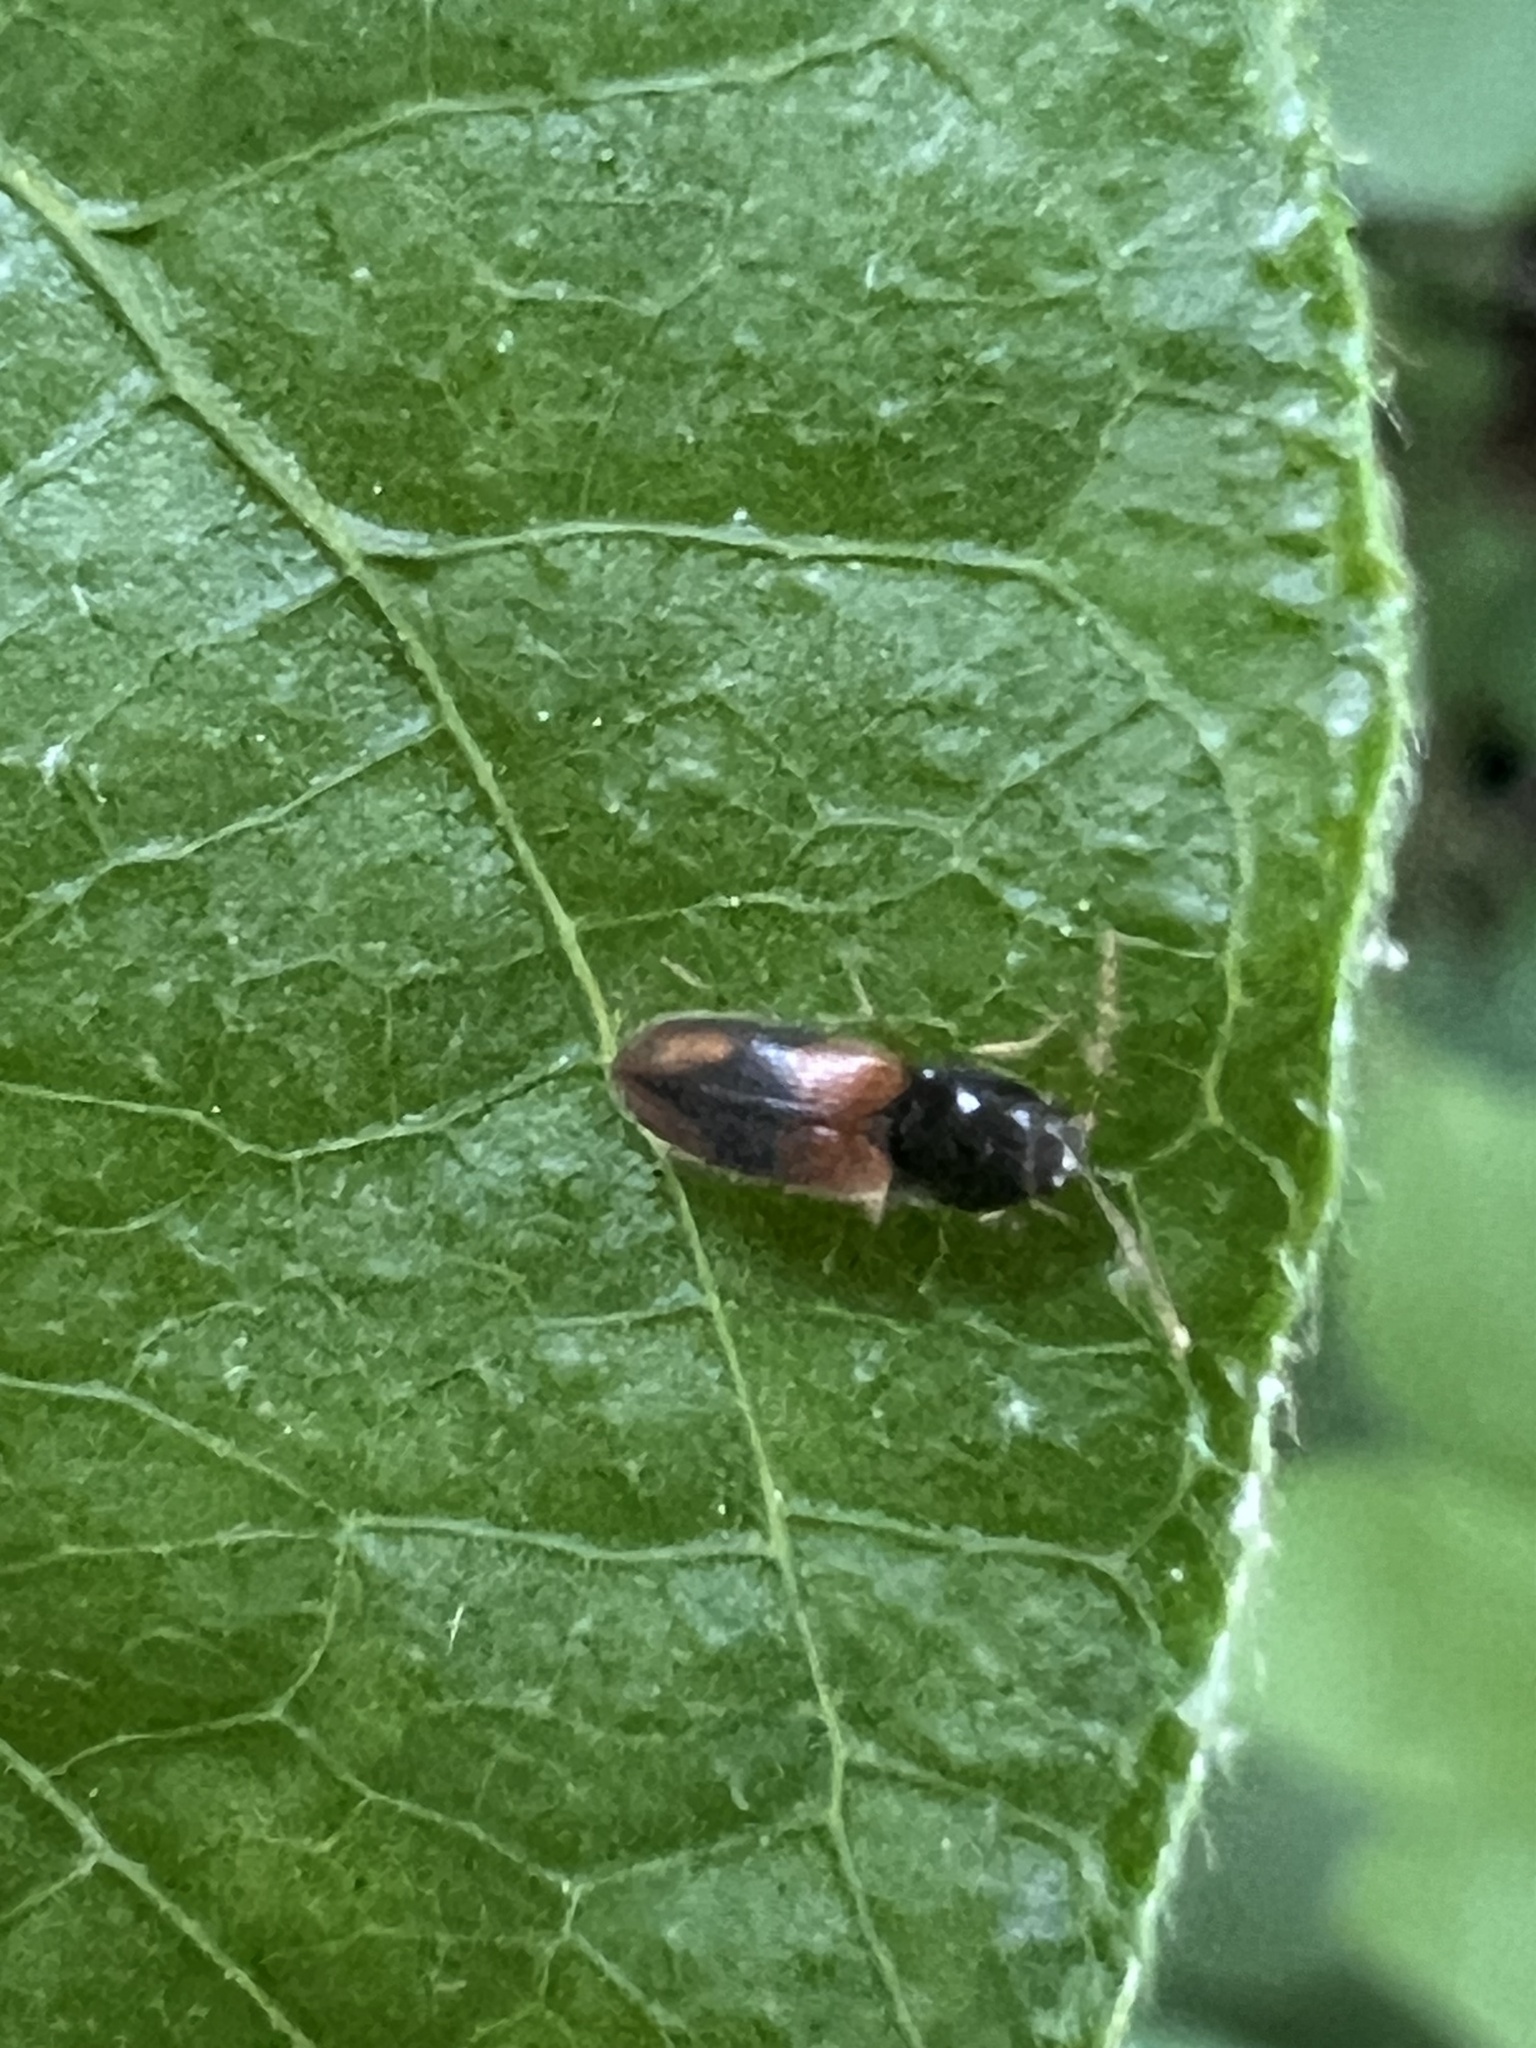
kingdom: Animalia
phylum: Arthropoda
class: Insecta
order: Coleoptera
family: Elateridae
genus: Horistonotus
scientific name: Horistonotus curiatus
